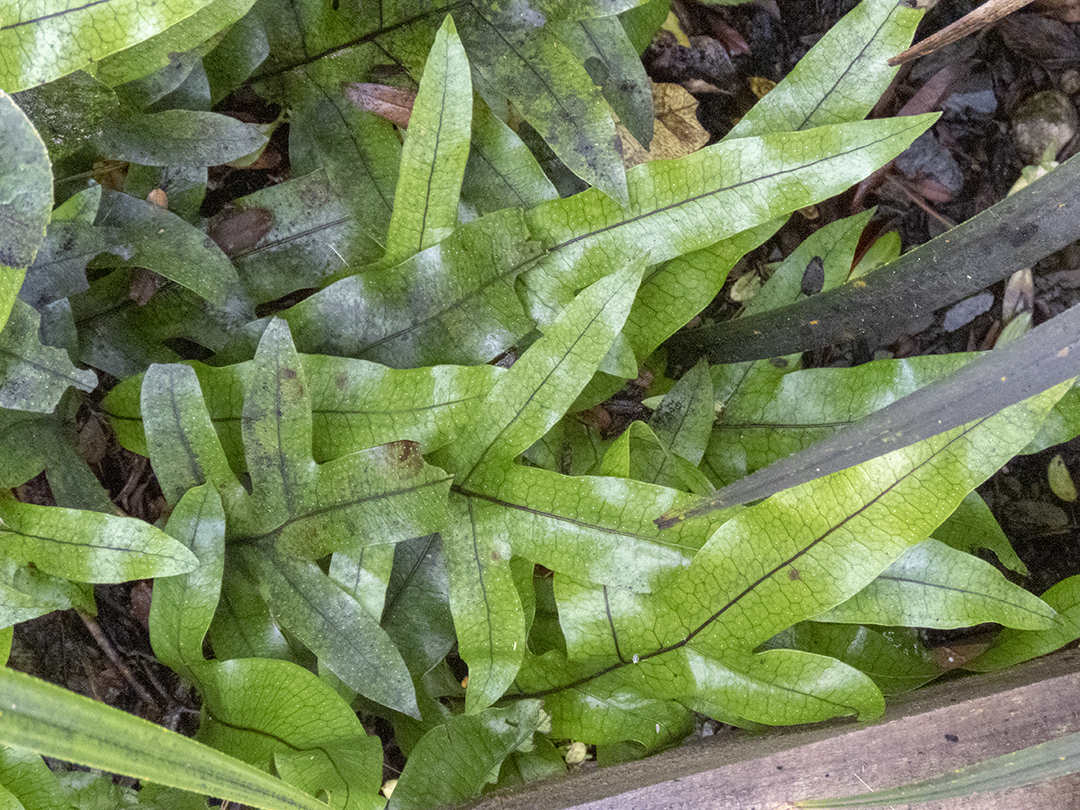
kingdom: Plantae
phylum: Tracheophyta
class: Polypodiopsida
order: Polypodiales
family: Polypodiaceae
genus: Lecanopteris
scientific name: Lecanopteris pustulata
